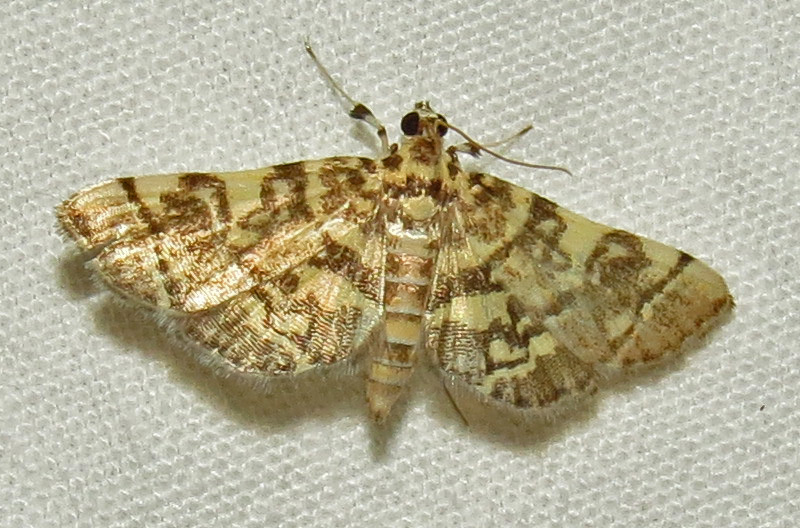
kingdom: Animalia
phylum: Arthropoda
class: Insecta
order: Lepidoptera
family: Crambidae
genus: Apogeshna
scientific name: Apogeshna stenialis
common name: Checkered apogeshna moth
